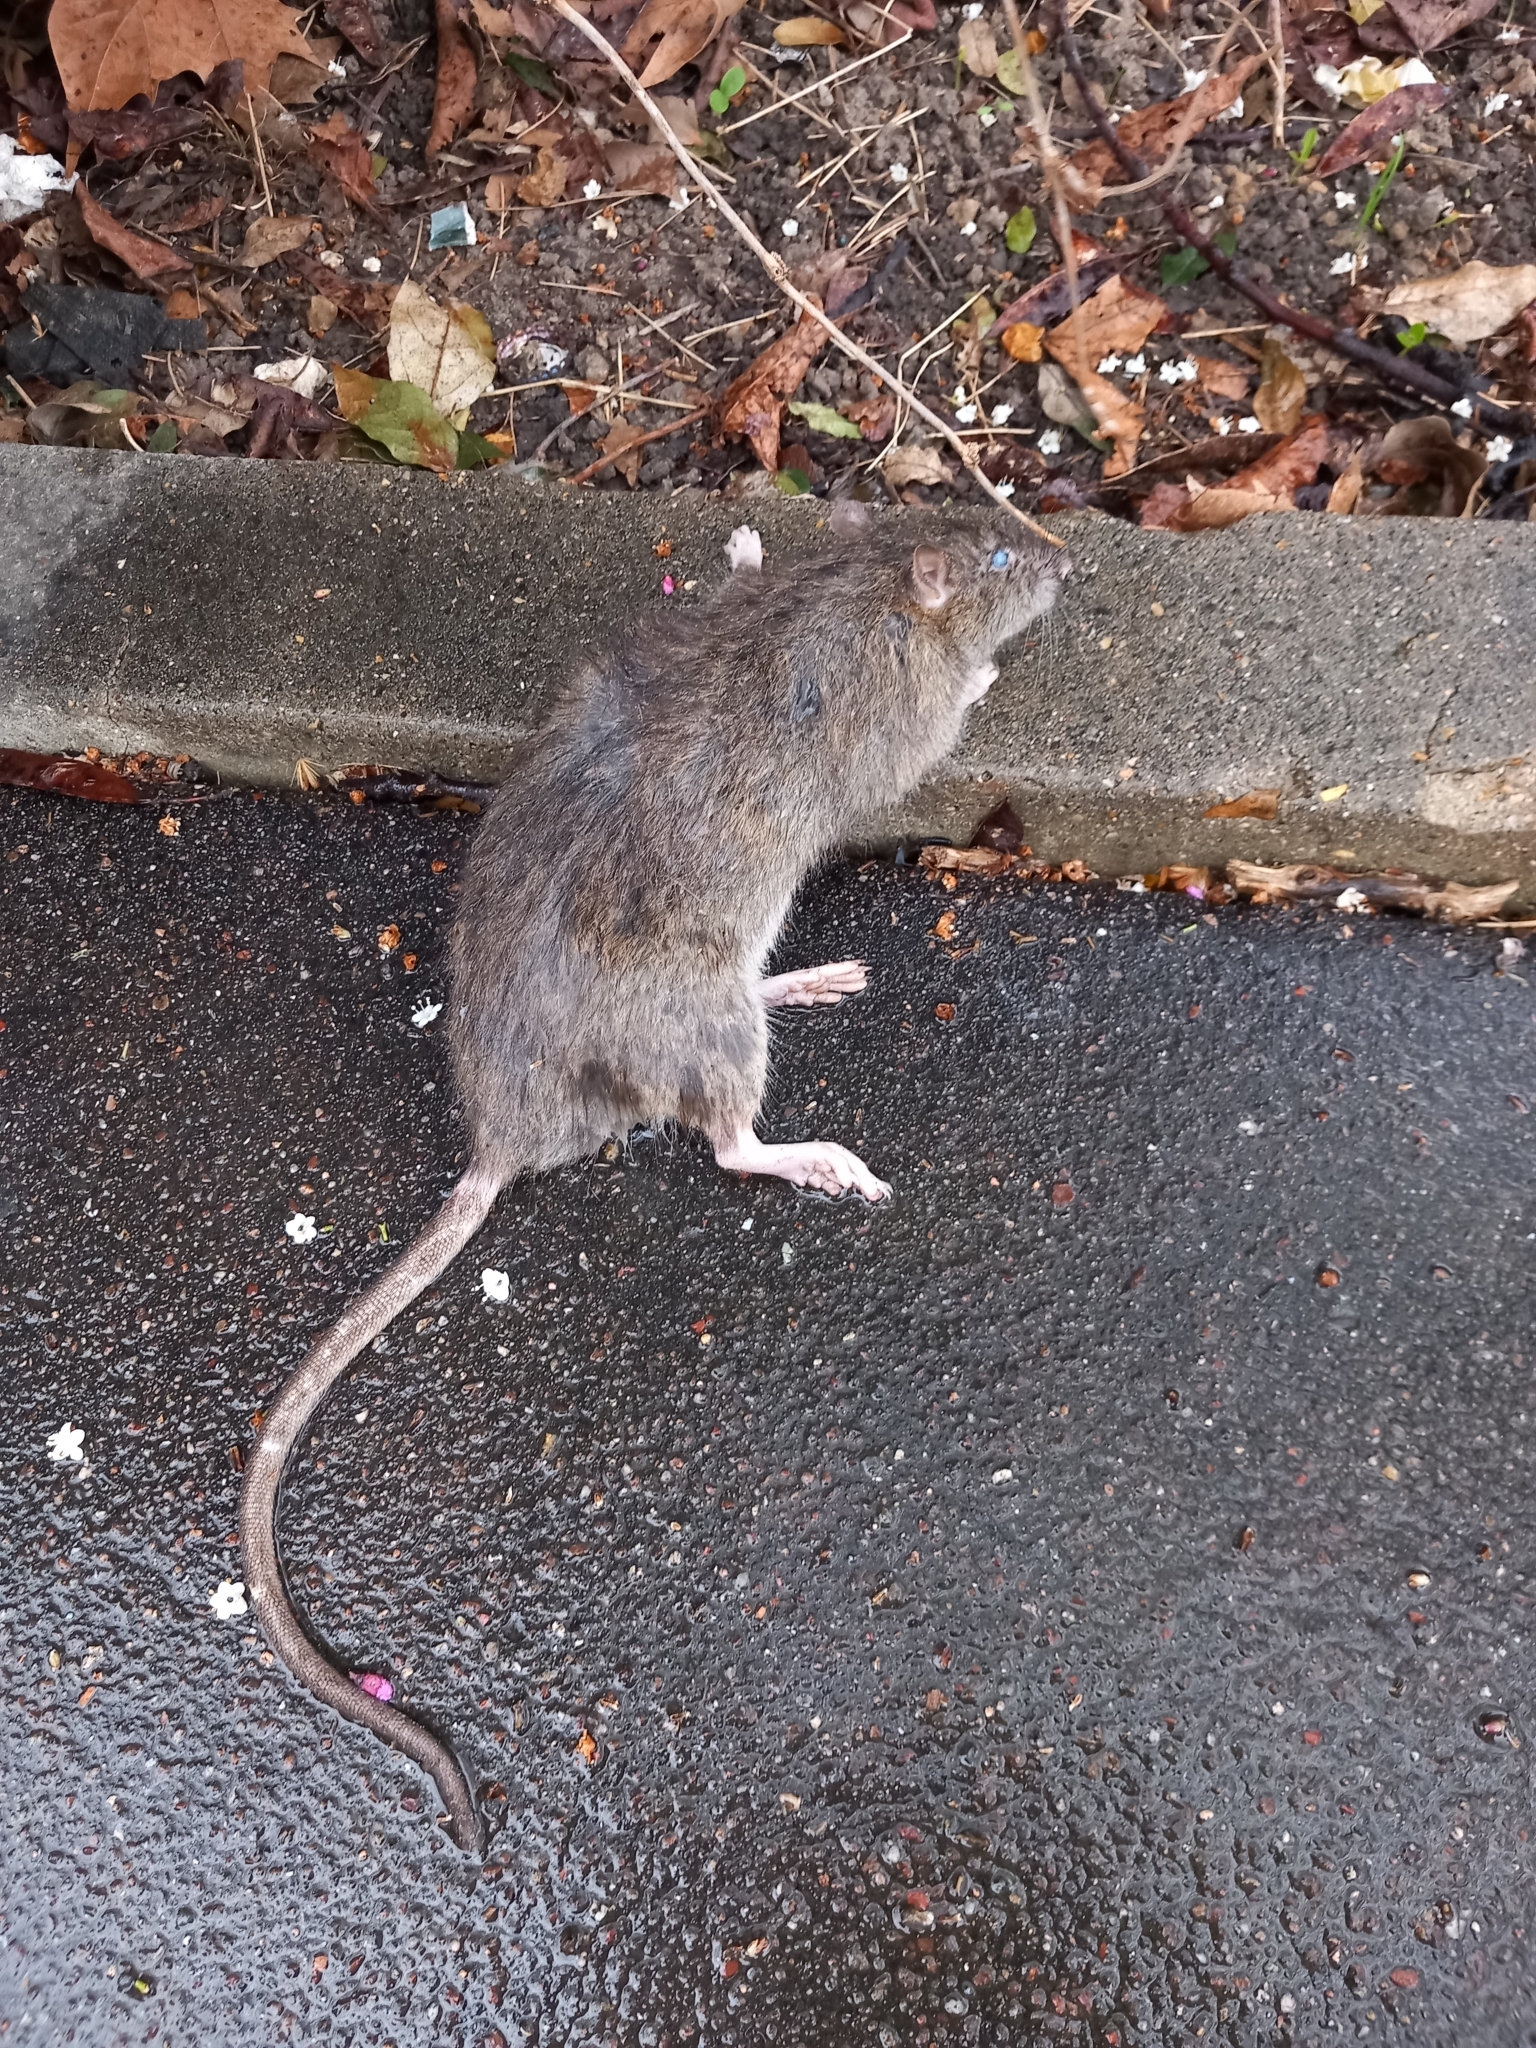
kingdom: Animalia
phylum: Chordata
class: Mammalia
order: Rodentia
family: Muridae
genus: Rattus
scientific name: Rattus norvegicus
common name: Brown rat
